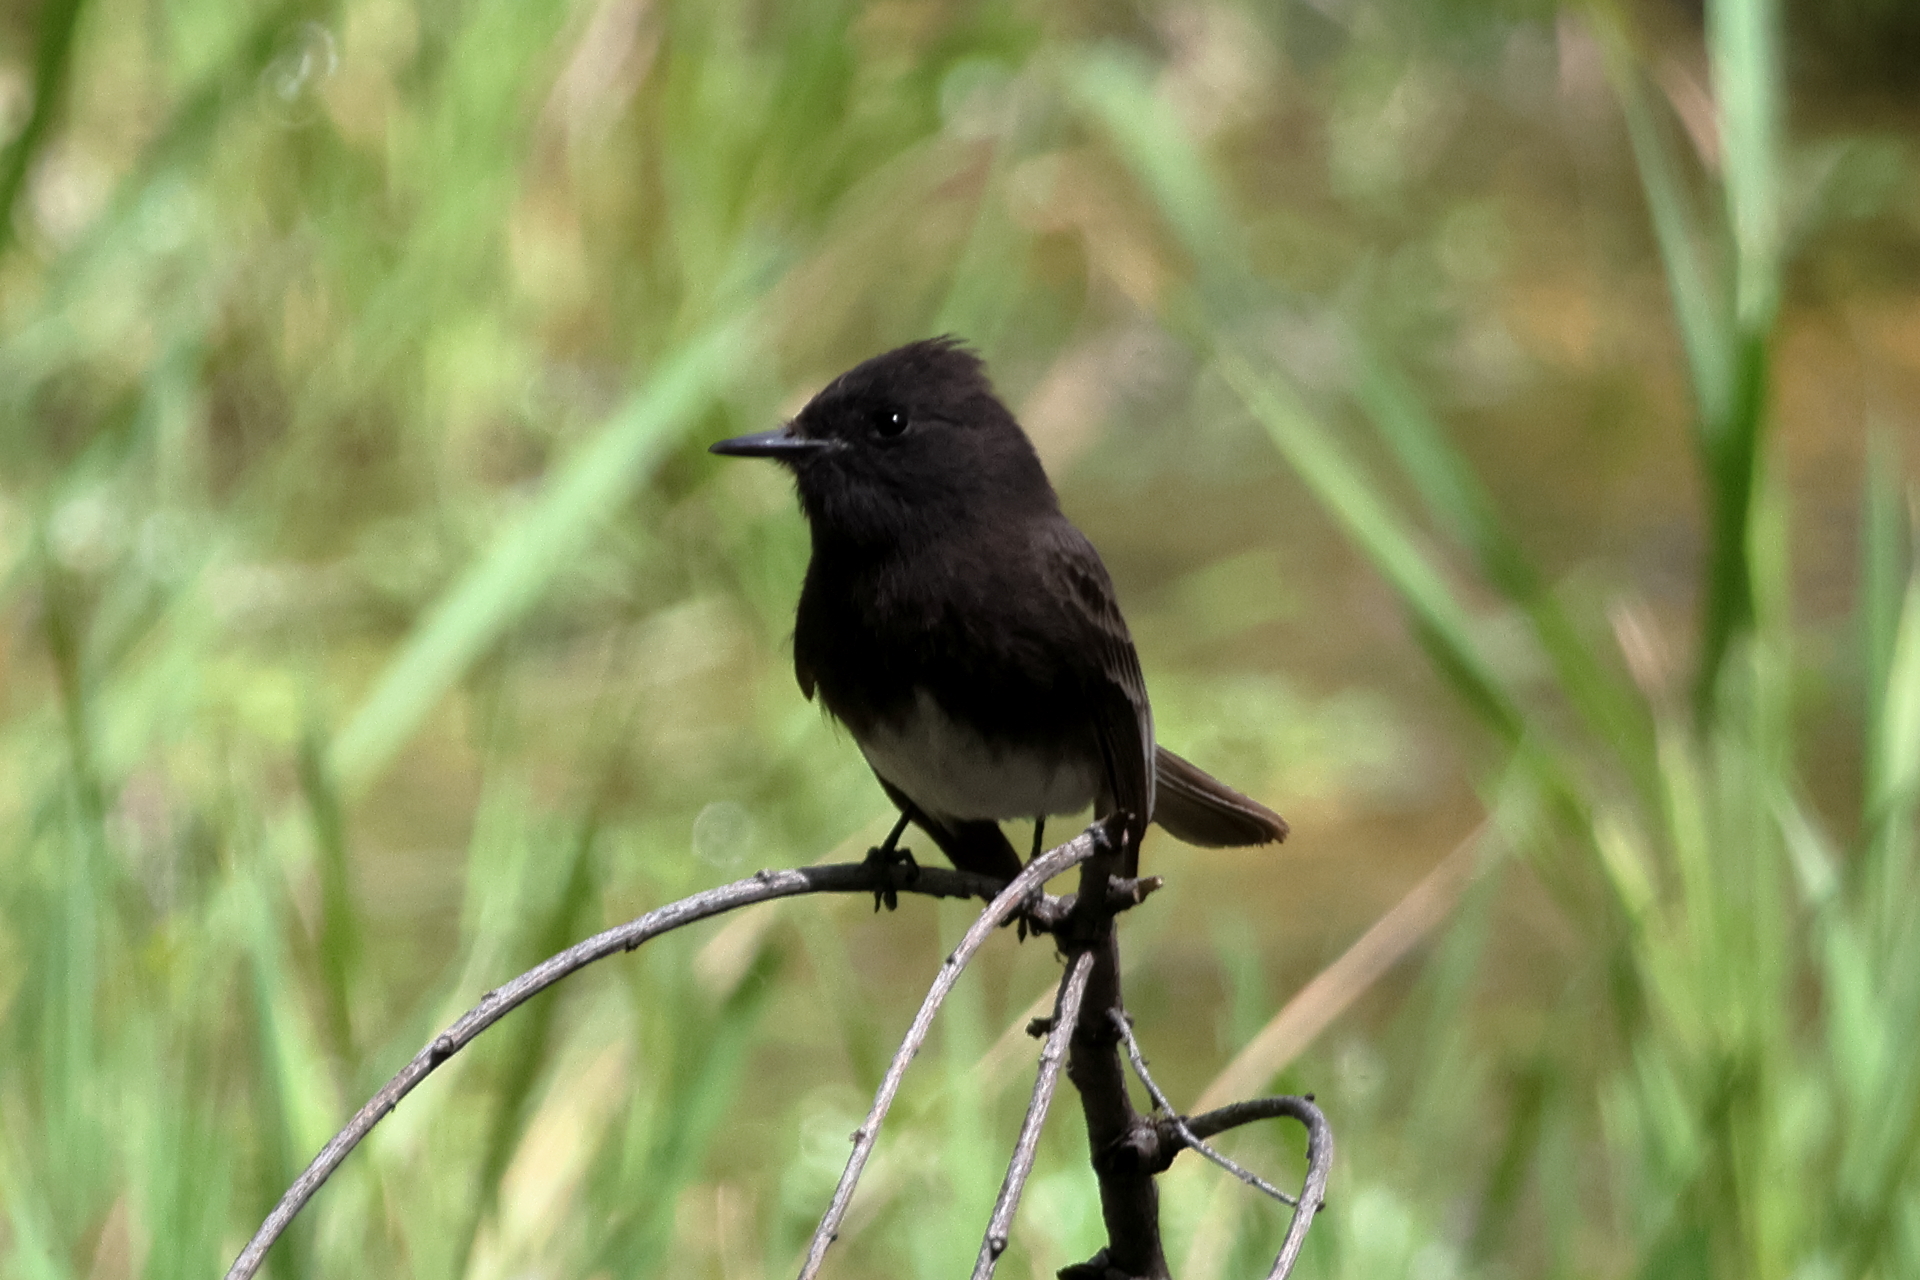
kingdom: Animalia
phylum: Chordata
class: Aves
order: Passeriformes
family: Tyrannidae
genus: Sayornis
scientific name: Sayornis nigricans
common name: Black phoebe
